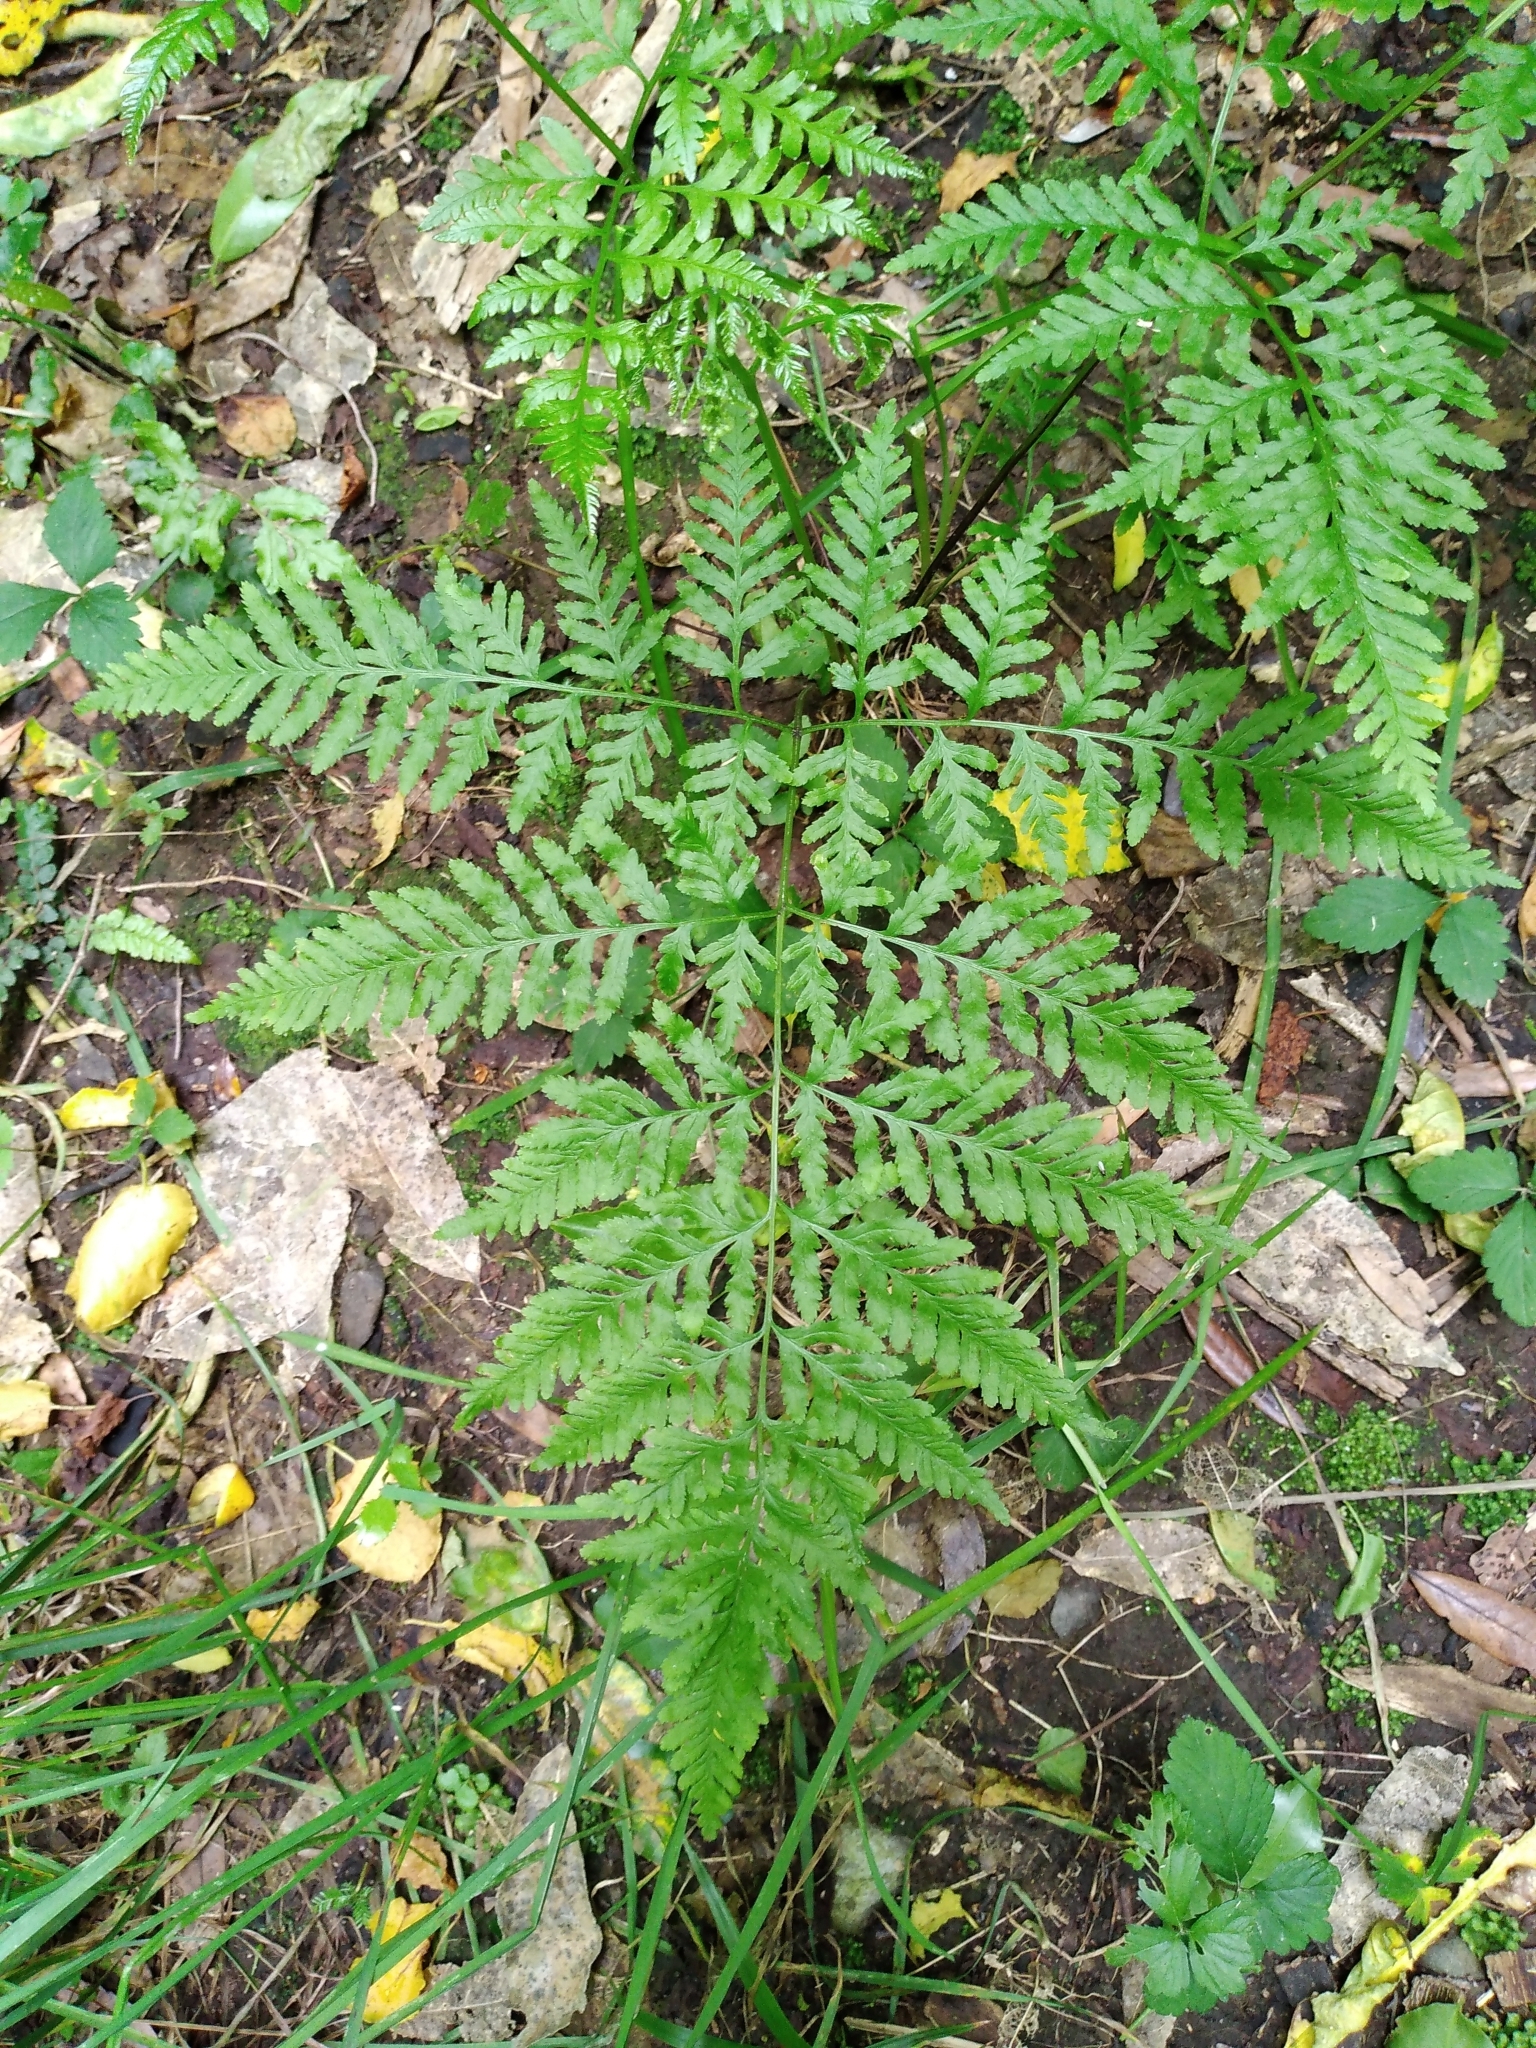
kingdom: Plantae
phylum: Tracheophyta
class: Polypodiopsida
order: Polypodiales
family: Pteridaceae
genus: Pteris
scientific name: Pteris tremula
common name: Australian brake
